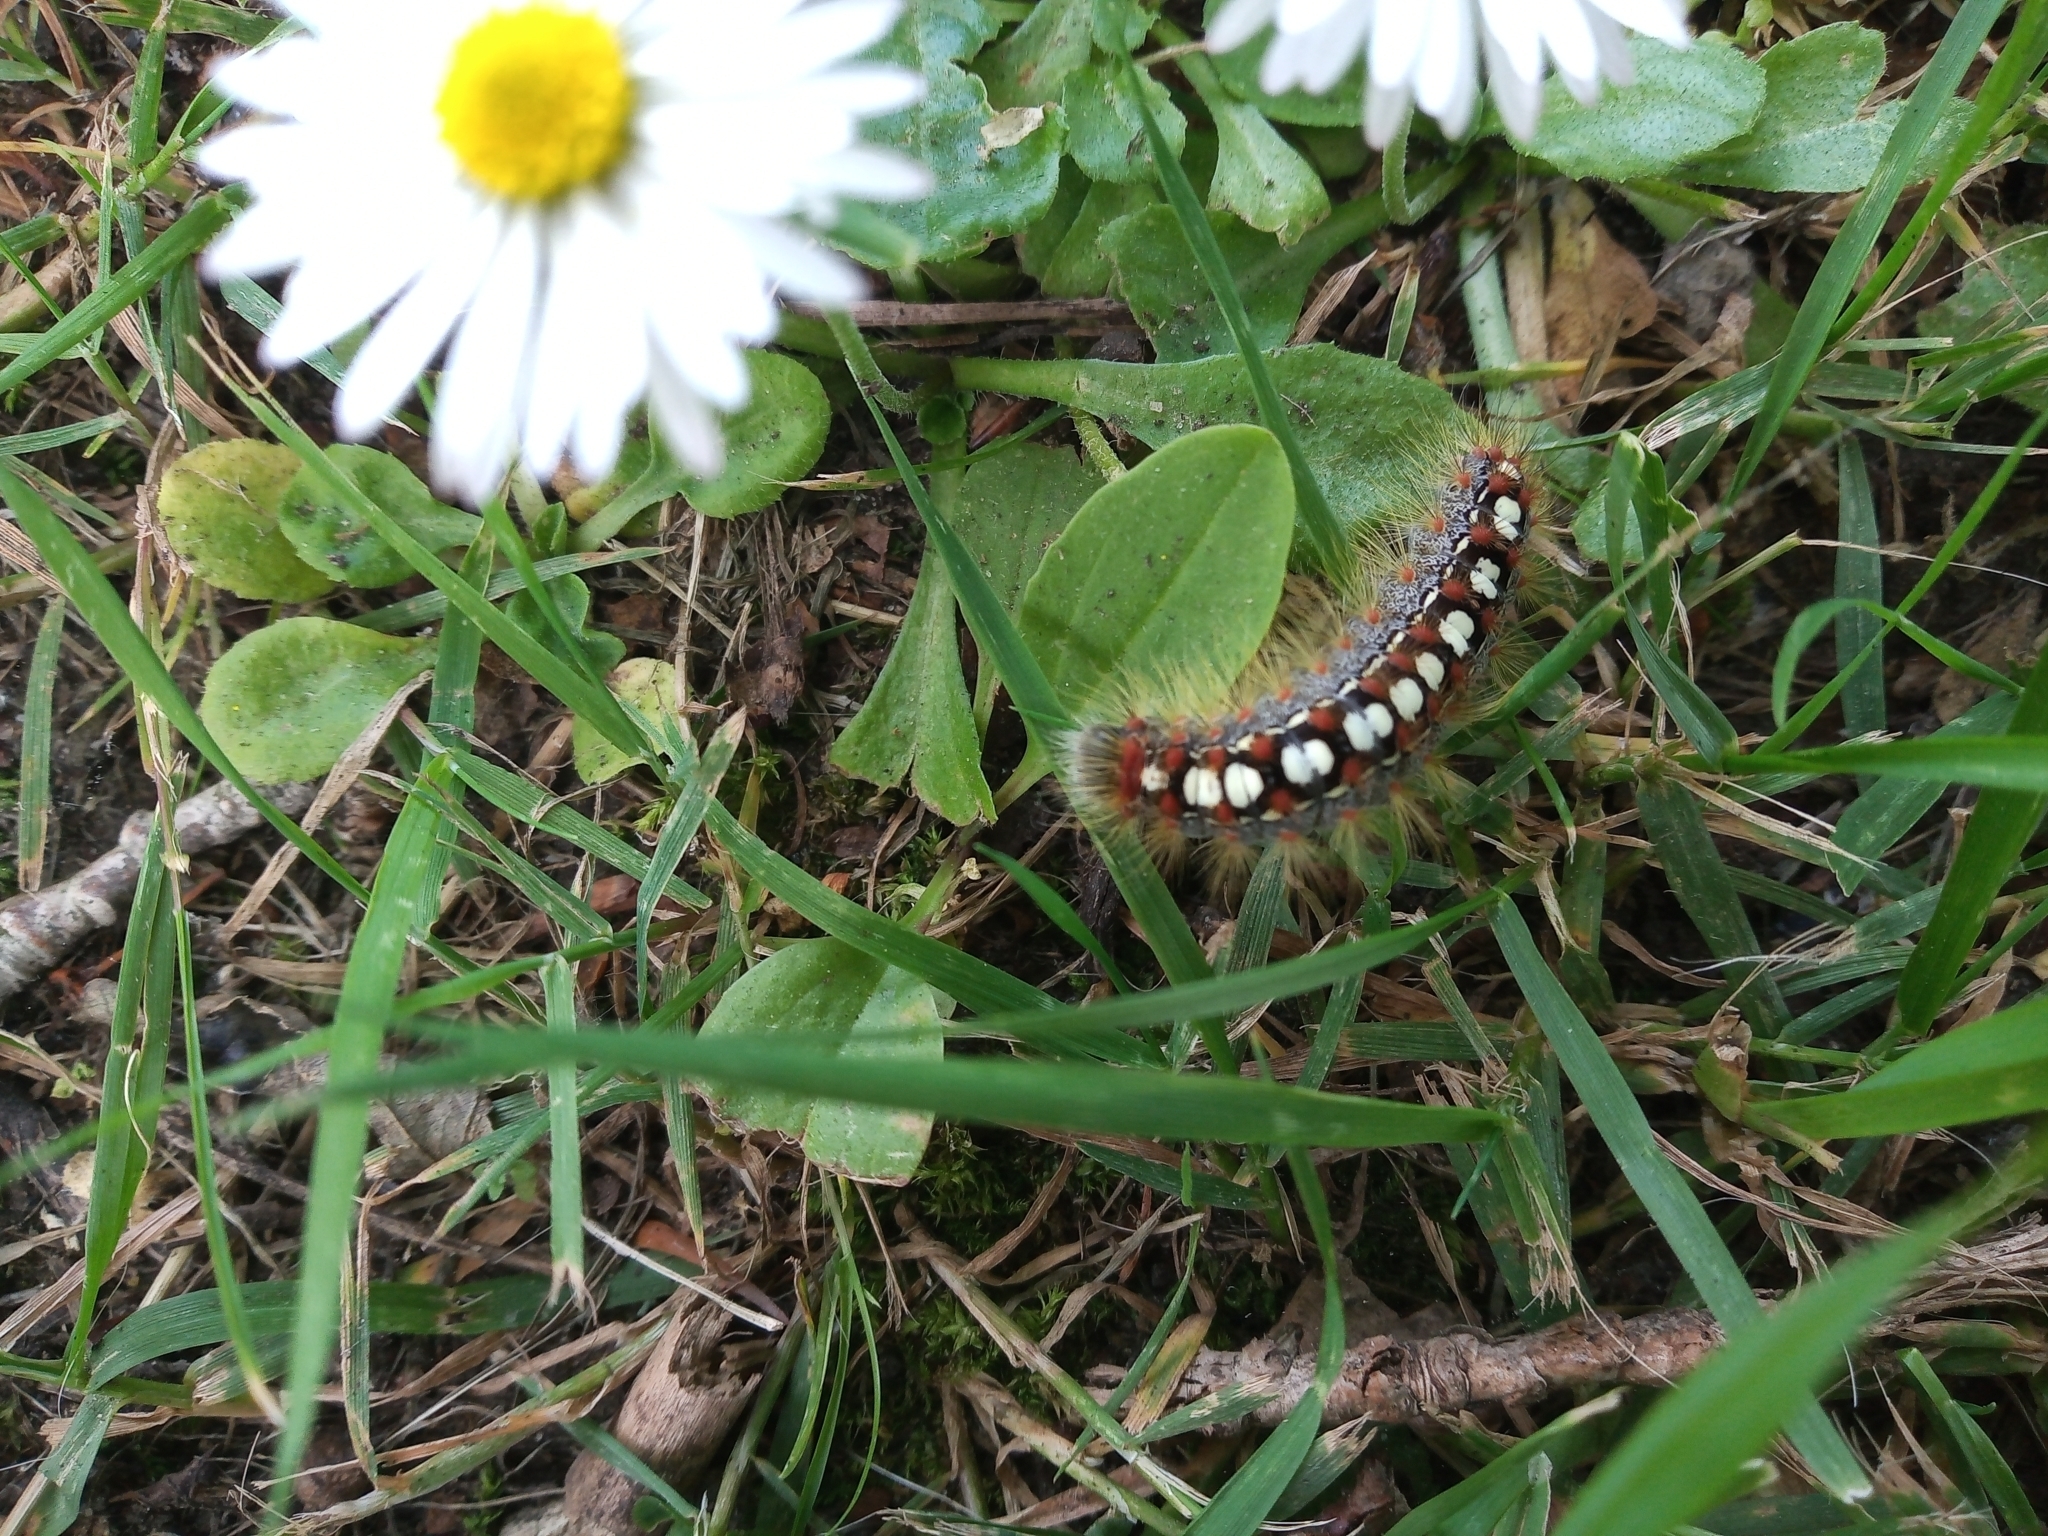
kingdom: Animalia
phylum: Arthropoda
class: Insecta
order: Lepidoptera
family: Erebidae
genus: Leucoma
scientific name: Leucoma salicis
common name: White satin moth
